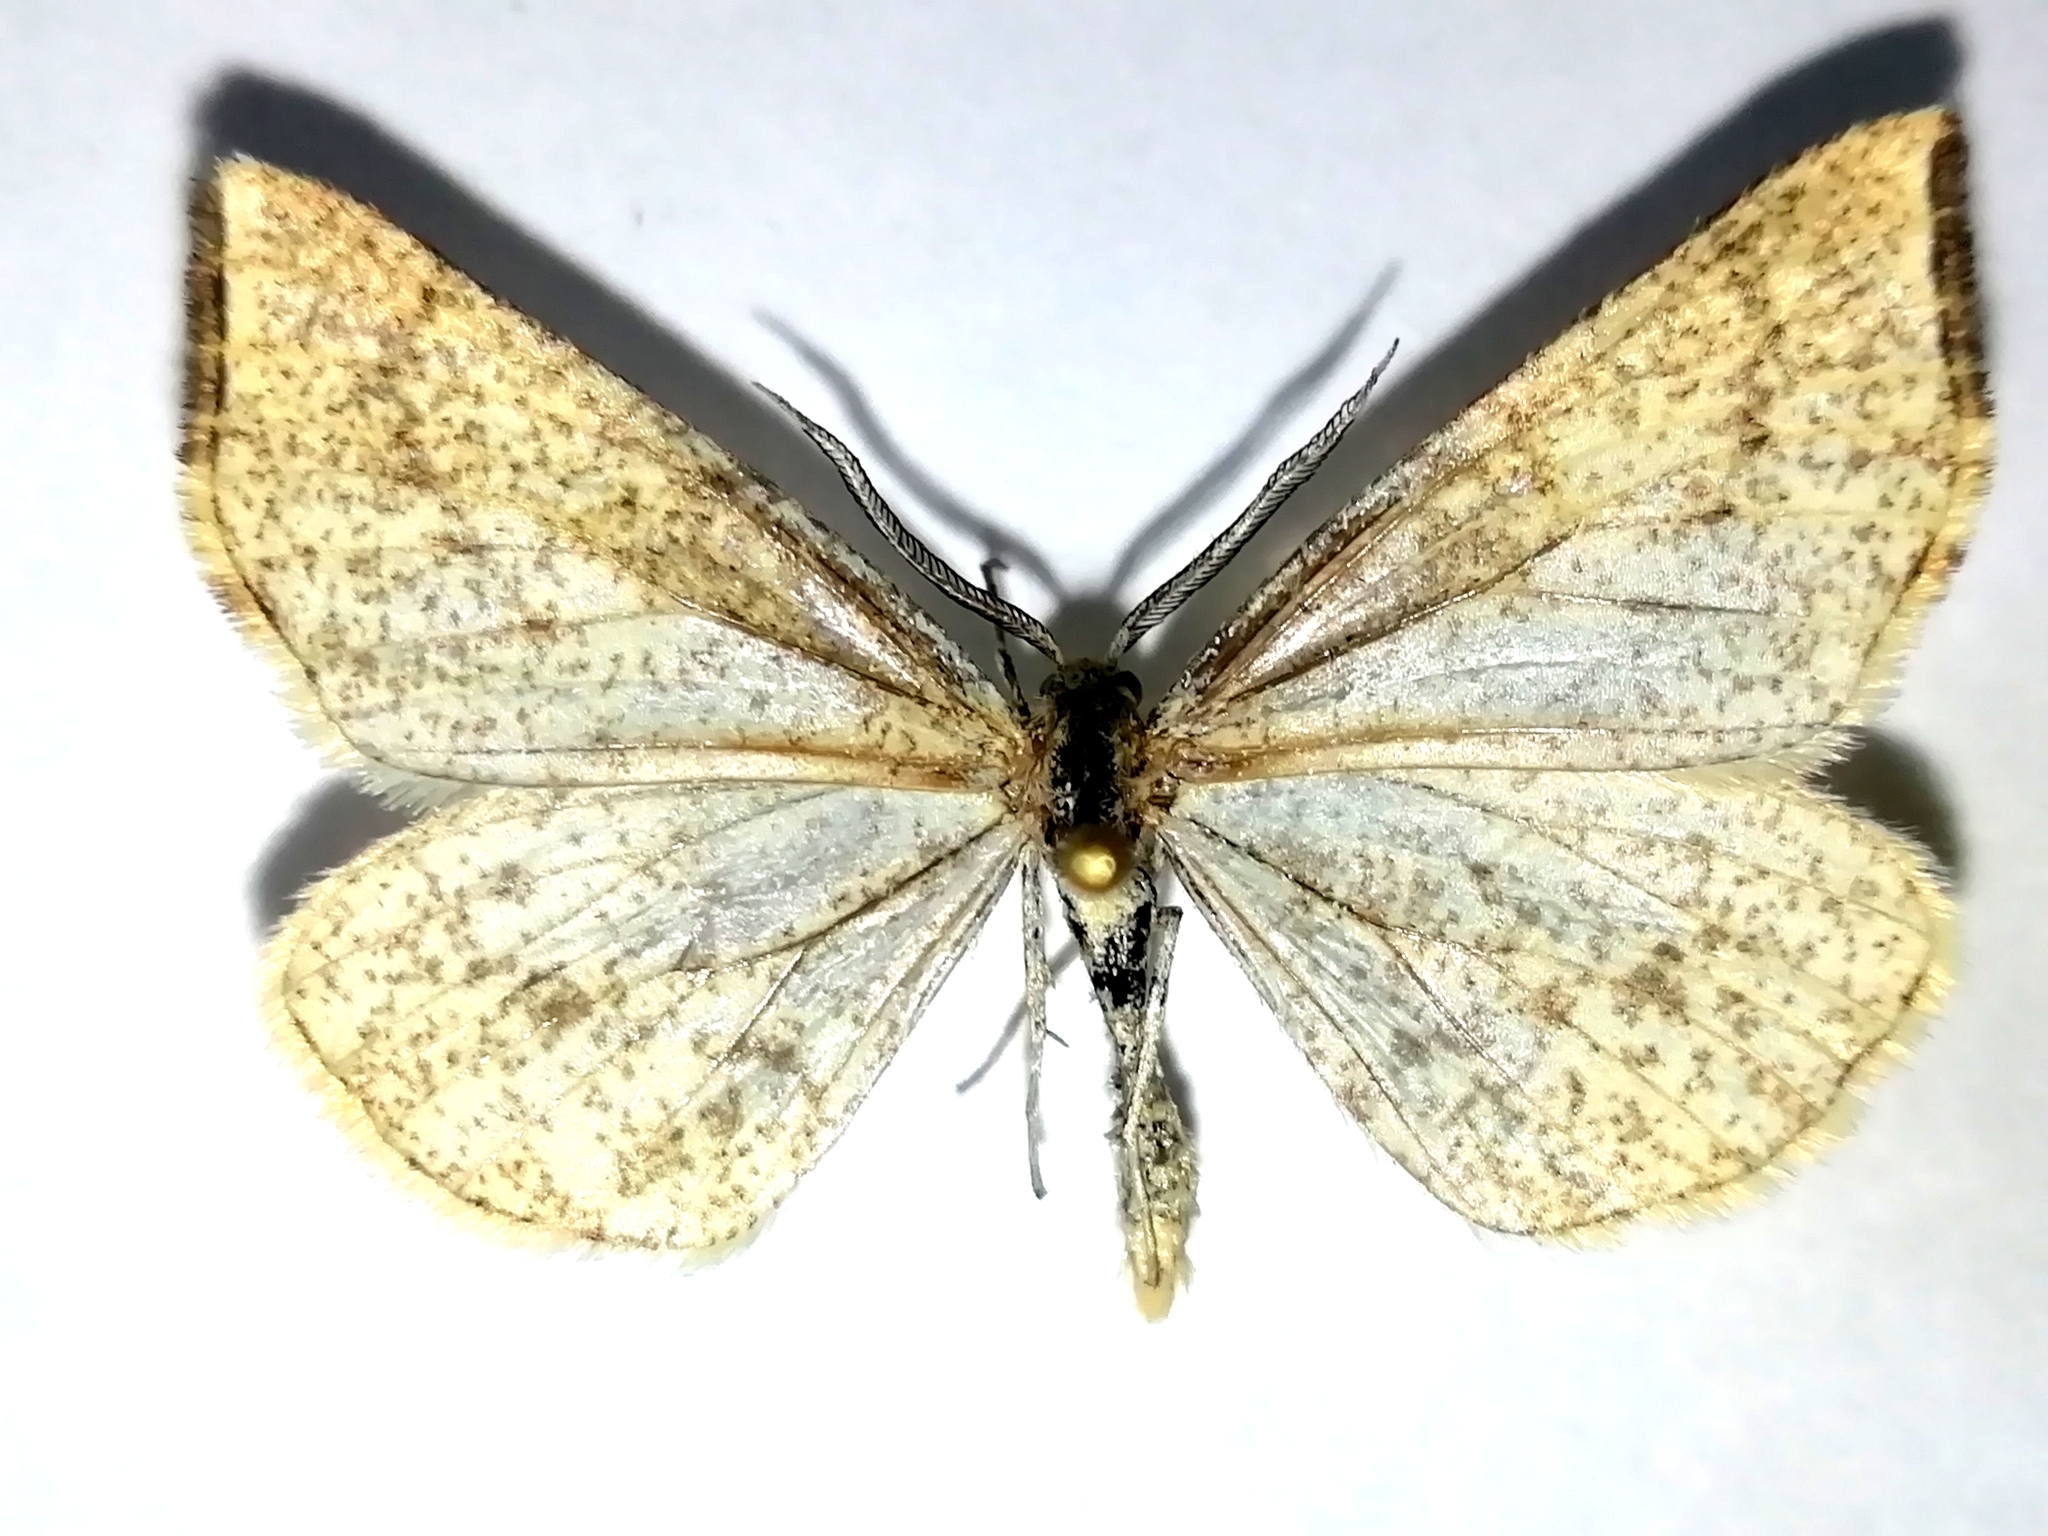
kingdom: Animalia
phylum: Arthropoda
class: Insecta
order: Lepidoptera
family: Geometridae
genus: Hypoxystis
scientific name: Hypoxystis pluviaria
